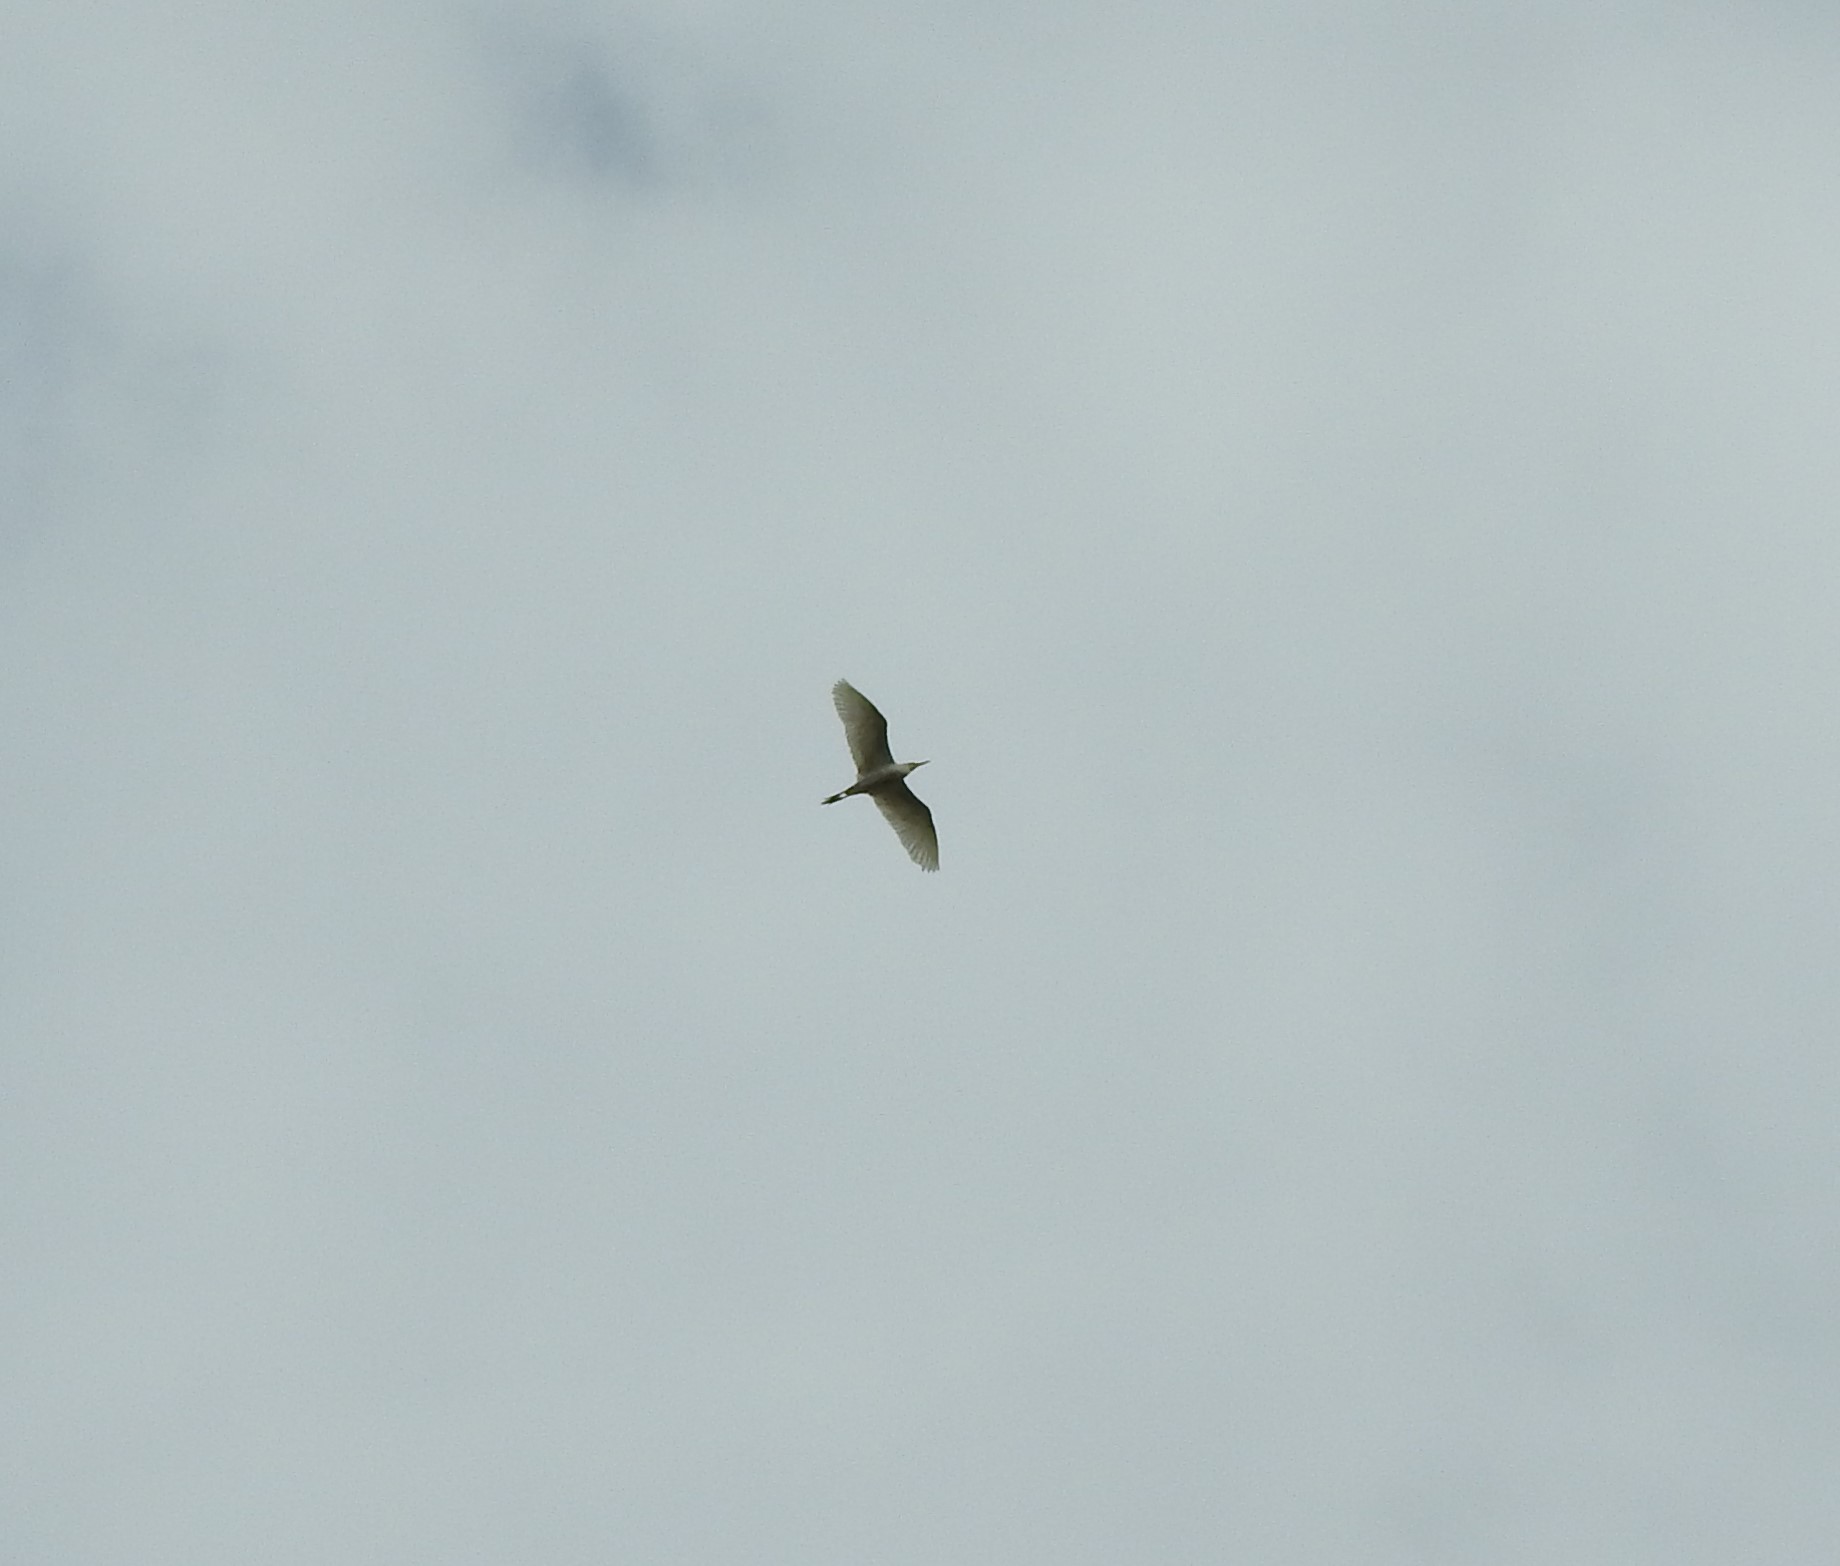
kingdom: Animalia
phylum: Chordata
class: Aves
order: Pelecaniformes
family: Ardeidae
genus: Bubulcus
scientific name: Bubulcus ibis
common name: Cattle egret
